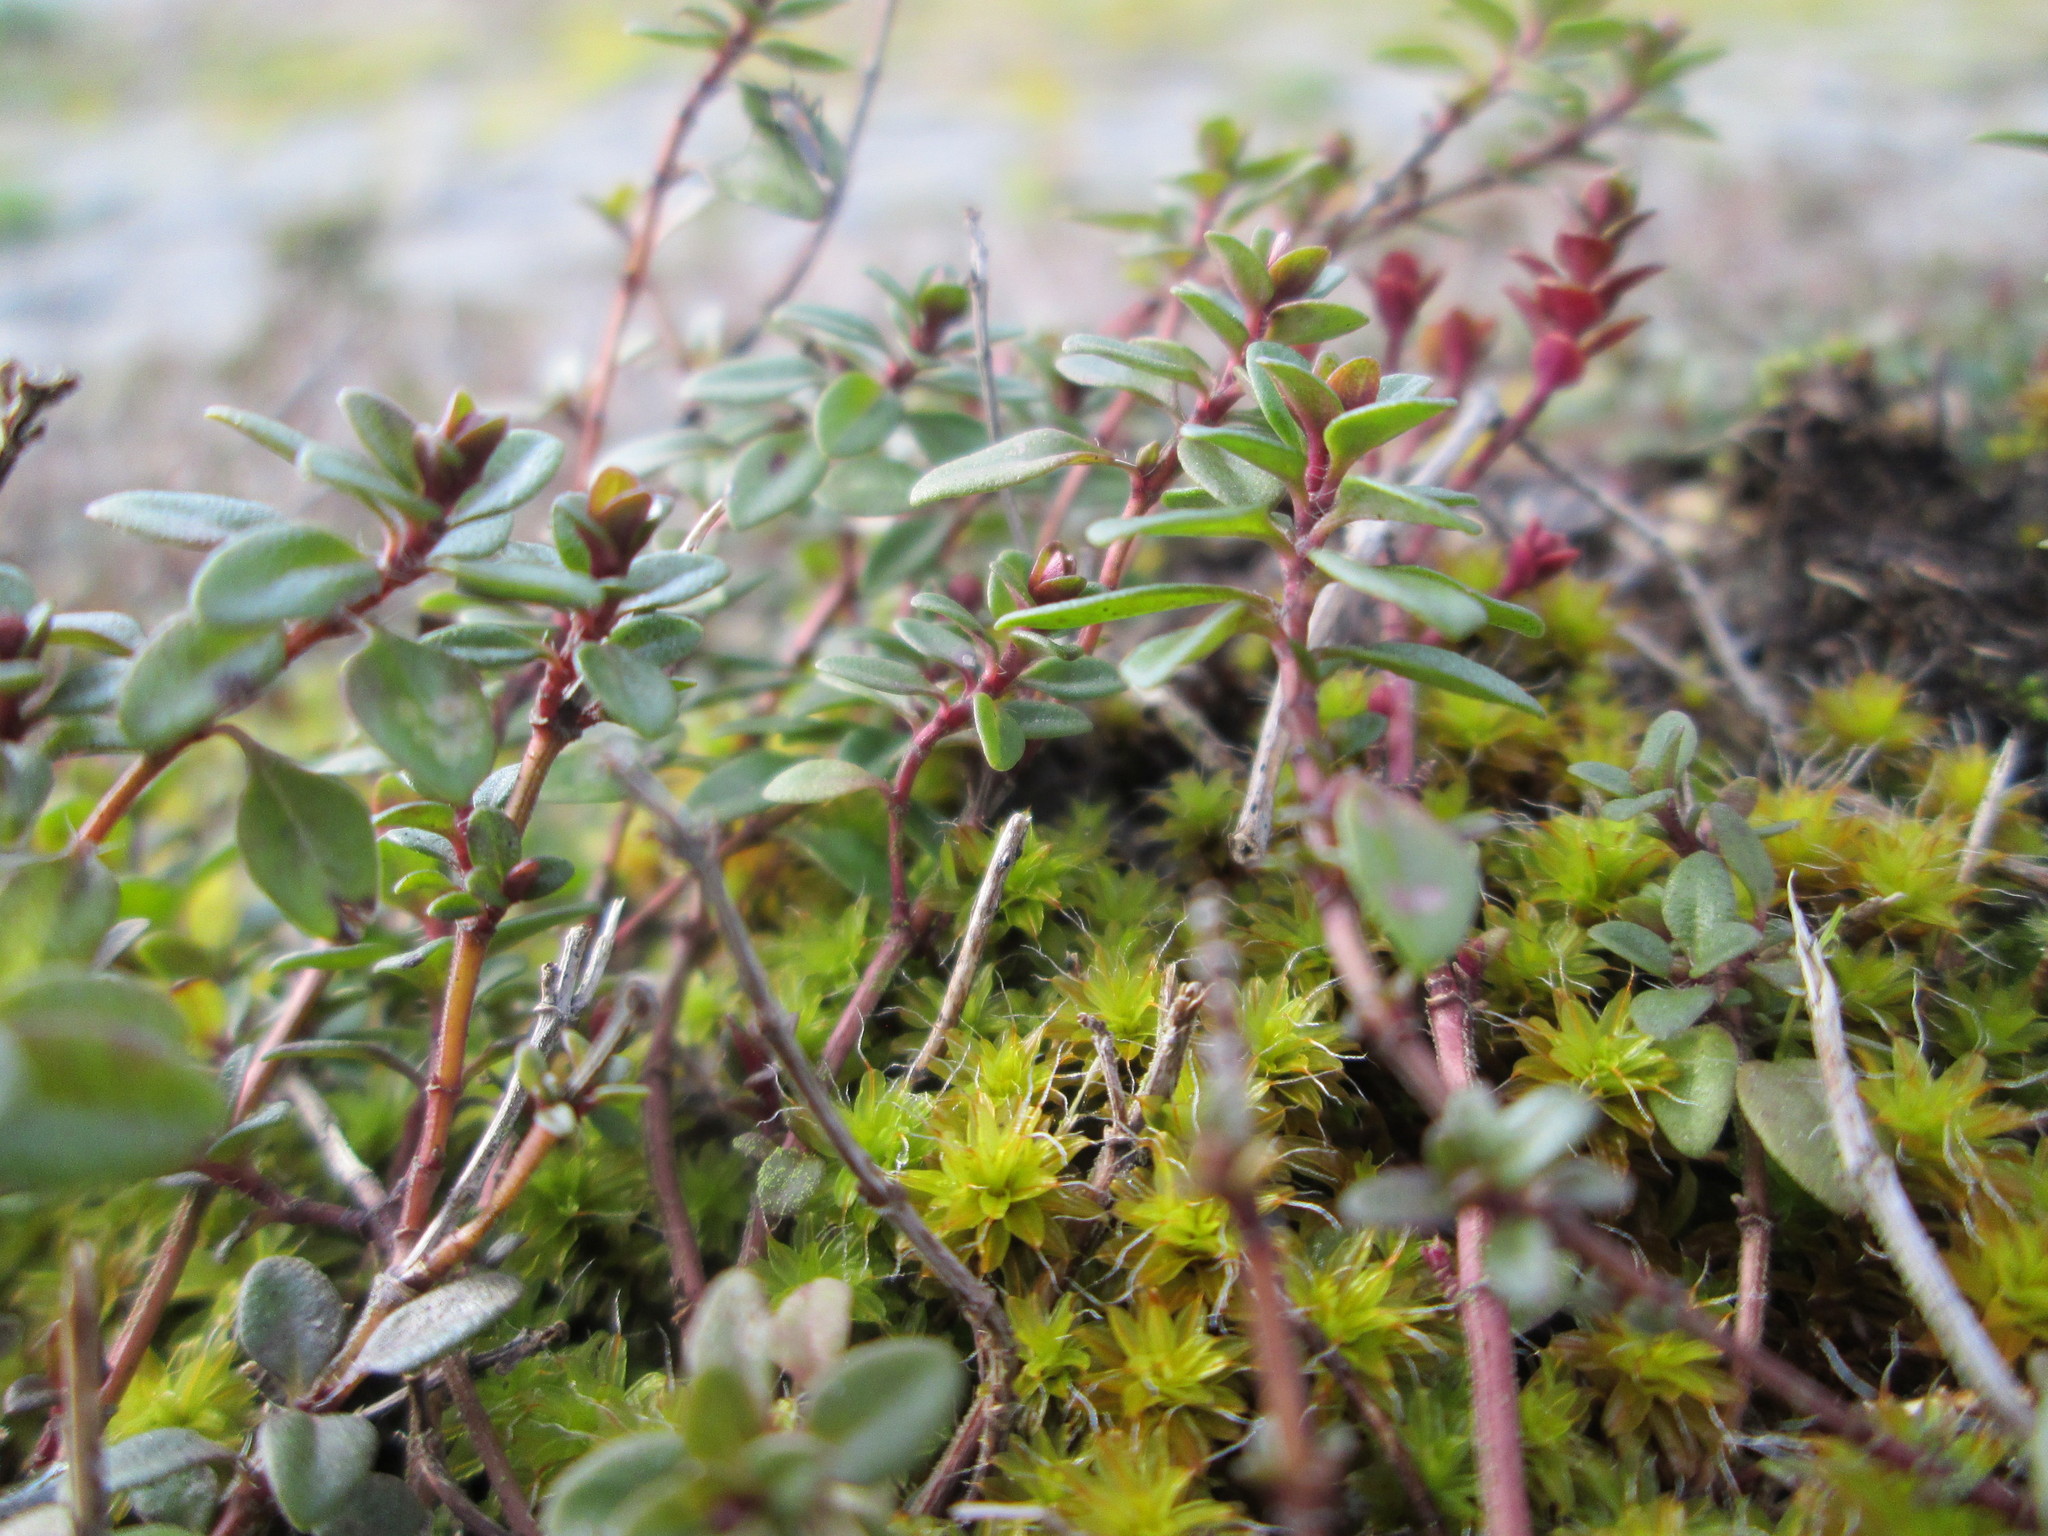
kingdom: Plantae
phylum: Tracheophyta
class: Magnoliopsida
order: Lamiales
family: Lamiaceae
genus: Thymus
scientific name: Thymus pulegioides
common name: Large thyme
